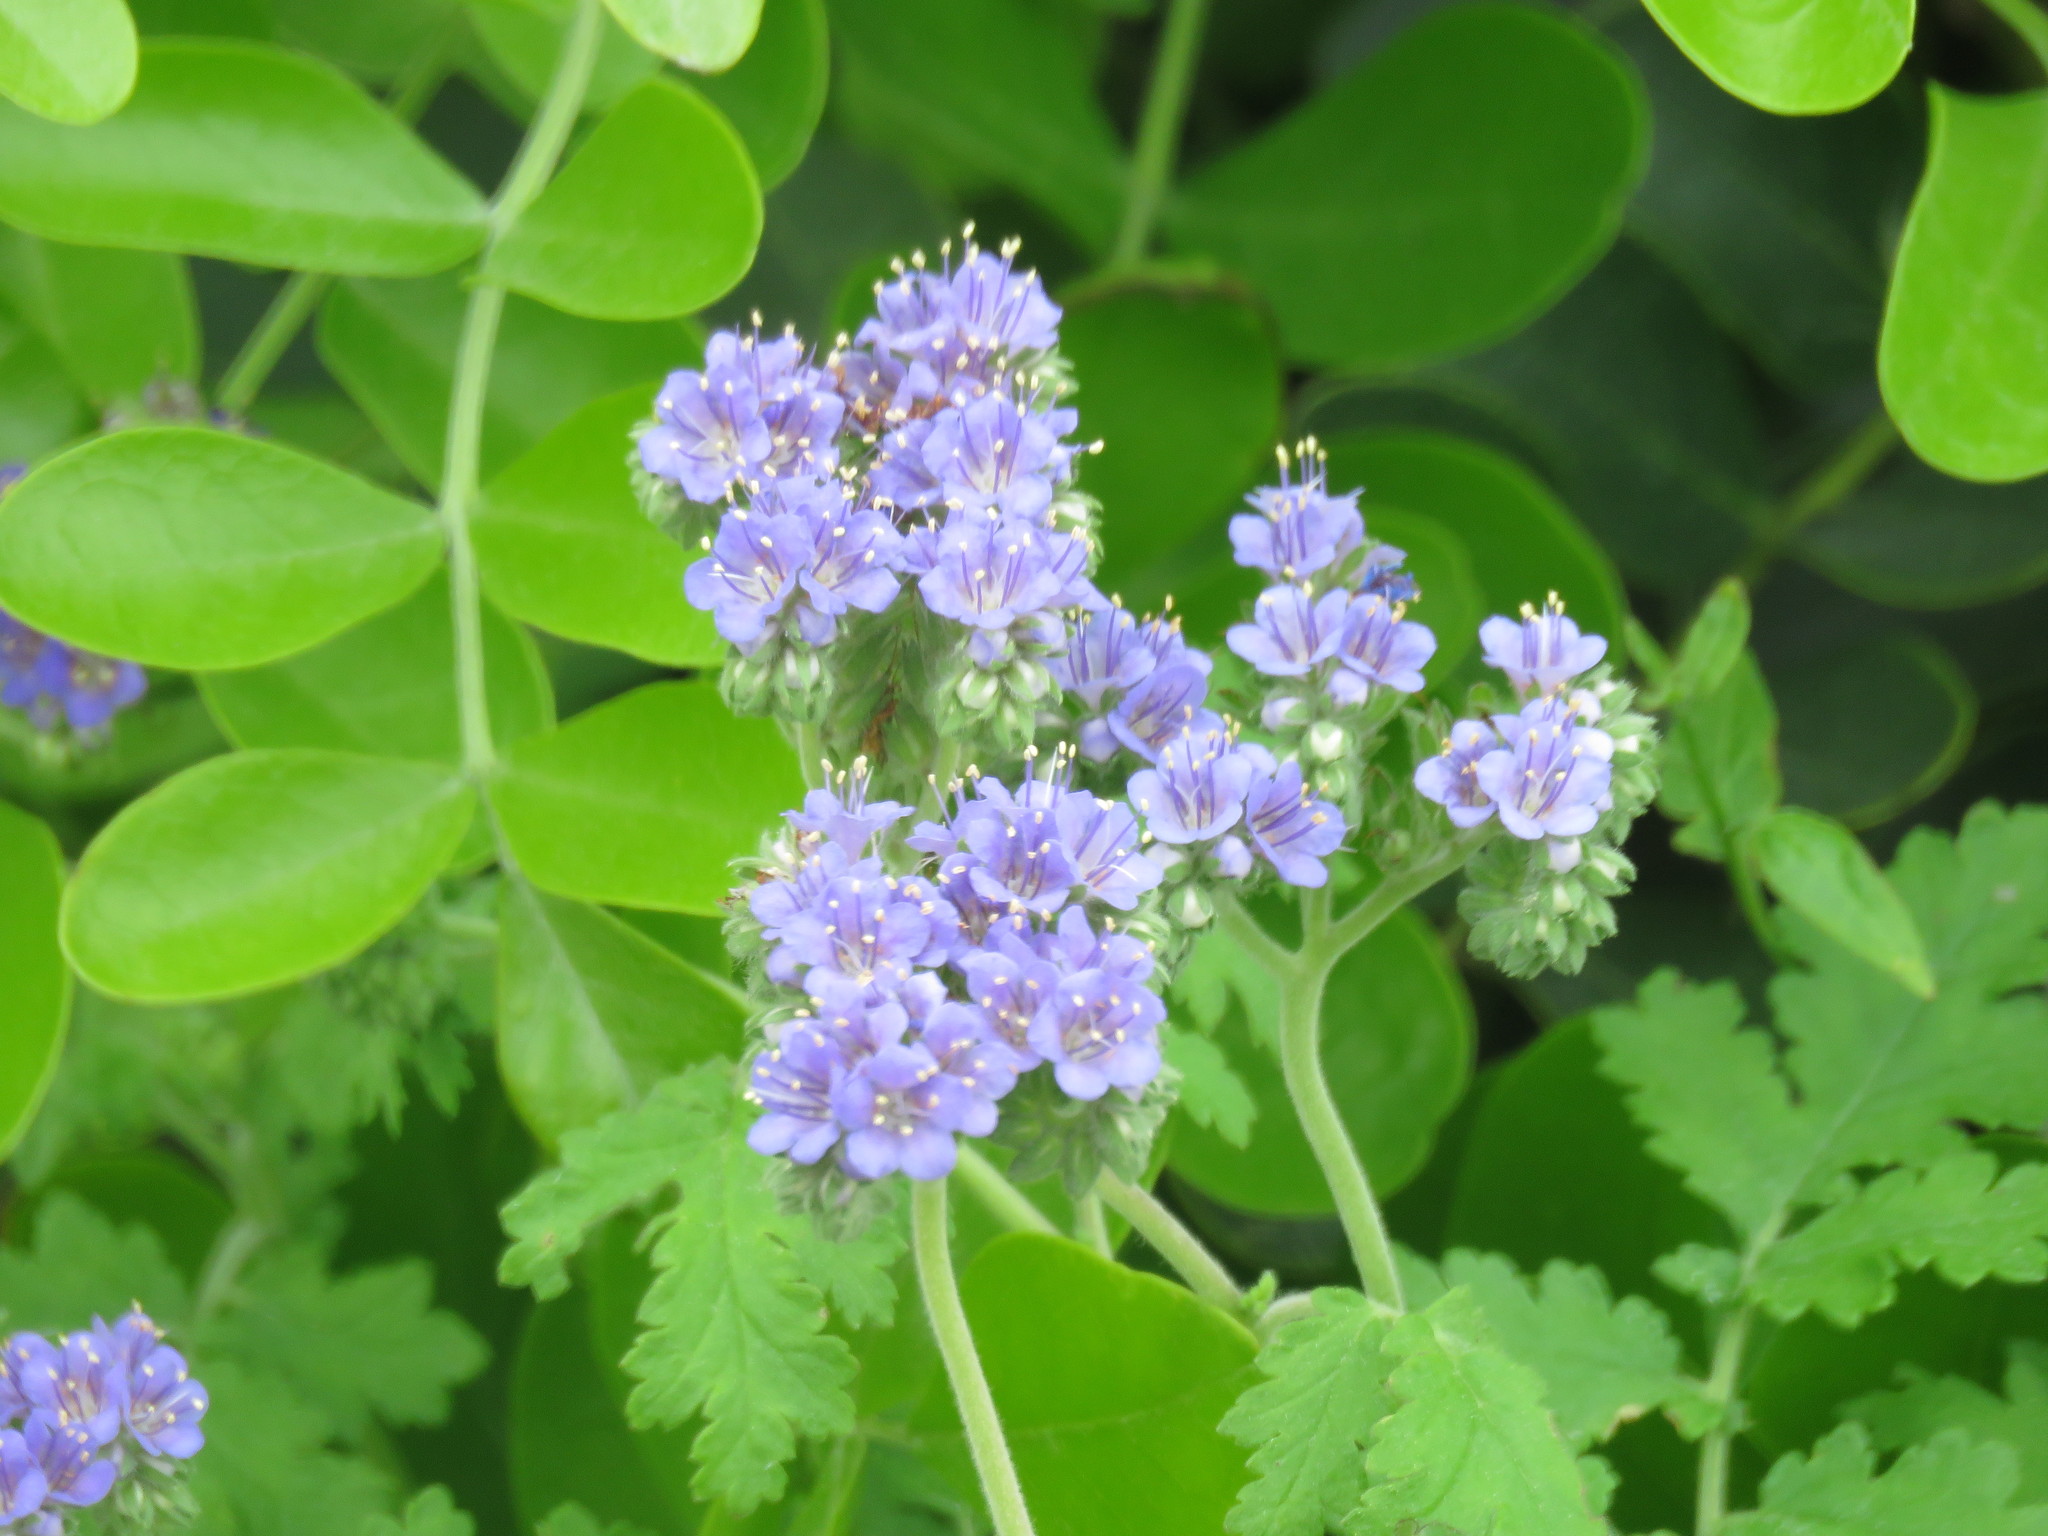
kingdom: Plantae
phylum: Tracheophyta
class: Magnoliopsida
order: Boraginales
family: Hydrophyllaceae
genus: Phacelia
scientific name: Phacelia congesta
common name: Blue curls
